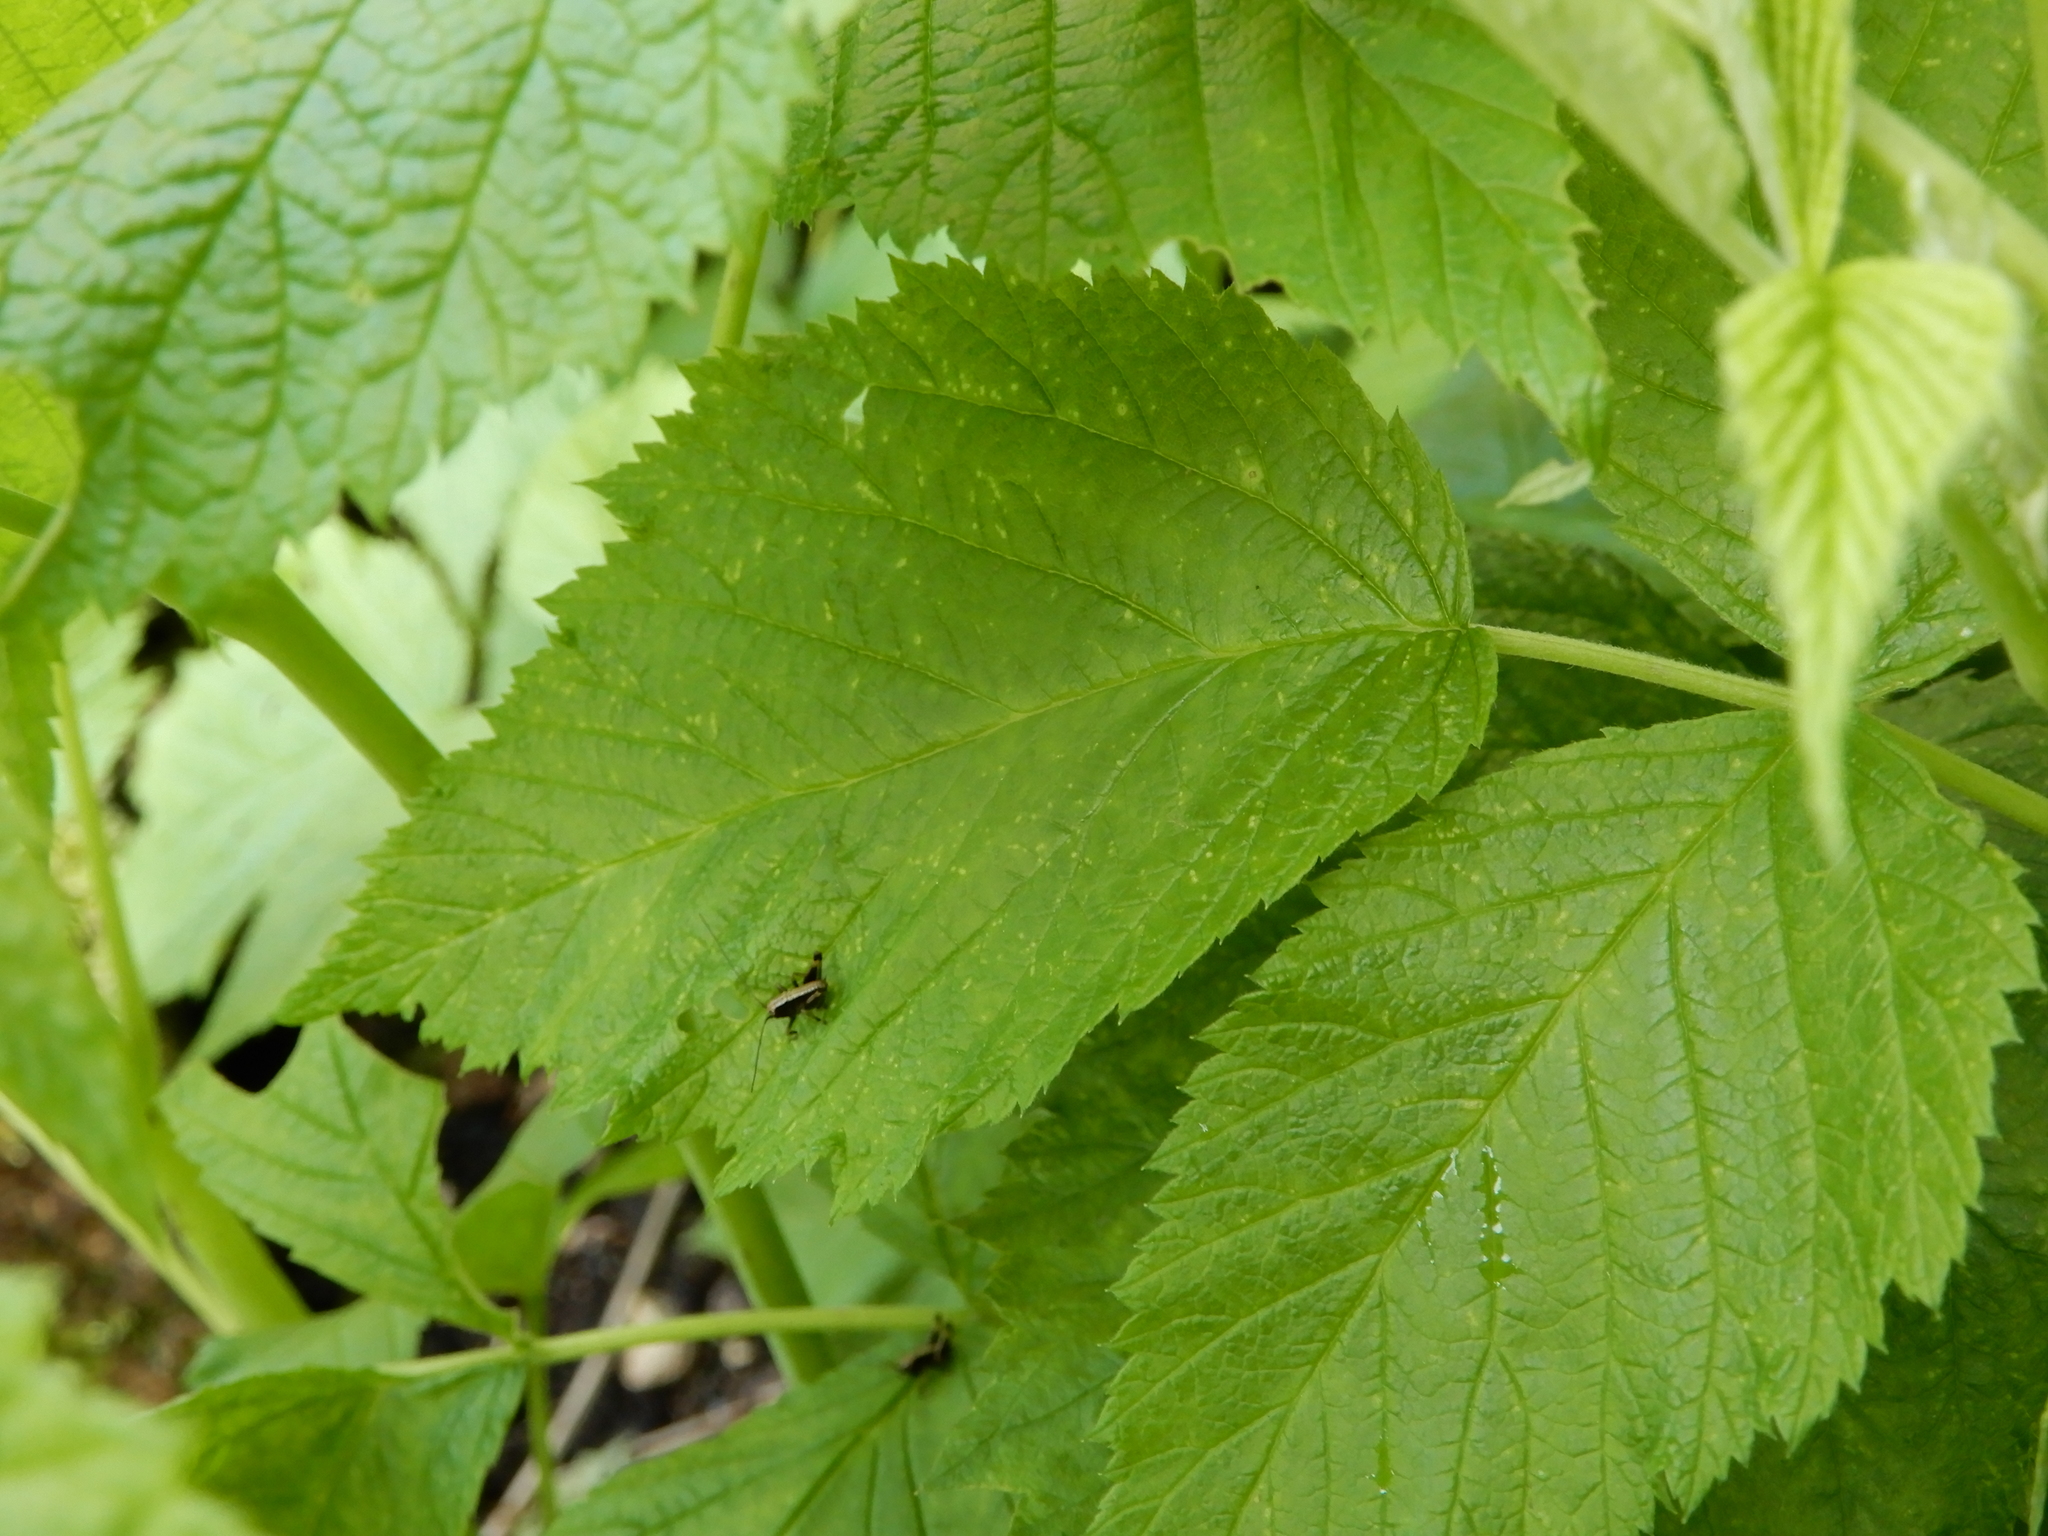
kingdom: Animalia
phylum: Arthropoda
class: Insecta
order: Orthoptera
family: Tettigoniidae
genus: Pholidoptera
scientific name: Pholidoptera griseoaptera
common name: Dark bush-cricket
